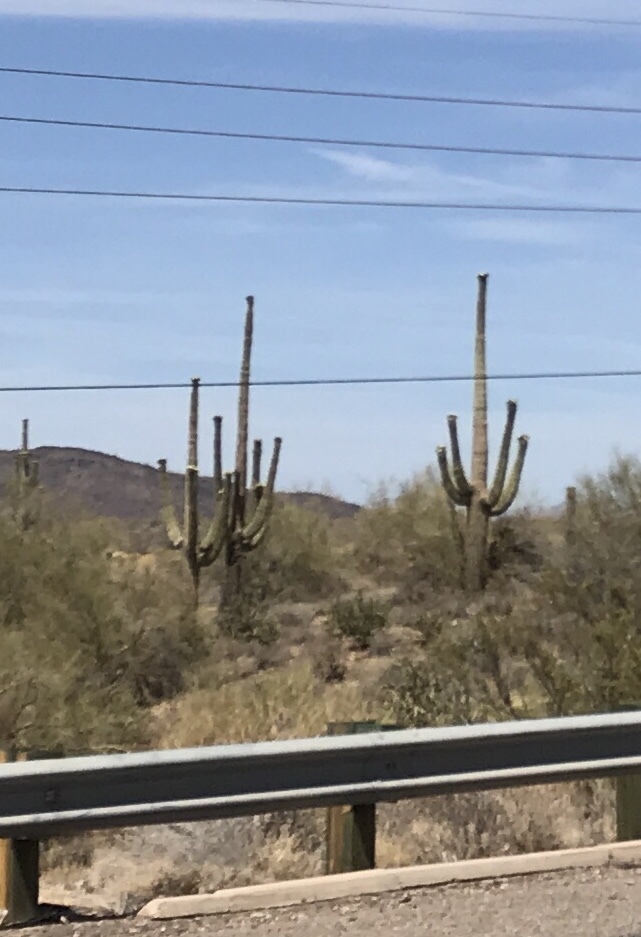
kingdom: Plantae
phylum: Tracheophyta
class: Magnoliopsida
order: Caryophyllales
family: Cactaceae
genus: Carnegiea
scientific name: Carnegiea gigantea
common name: Saguaro
